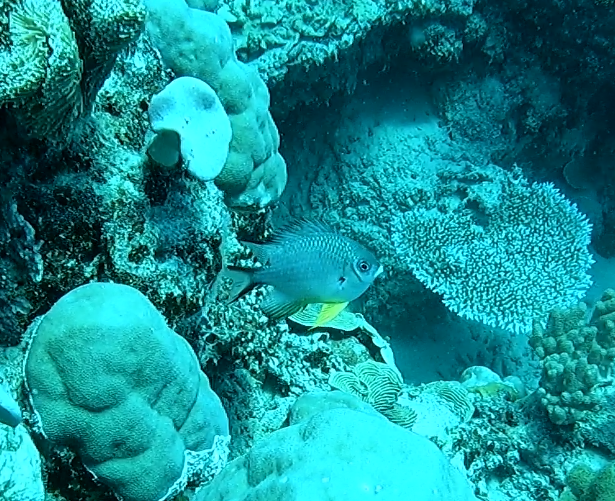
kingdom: Animalia
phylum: Chordata
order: Perciformes
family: Pomacentridae
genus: Amblyglyphidodon
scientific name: Amblyglyphidodon leucogaster
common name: White-belly damsel
